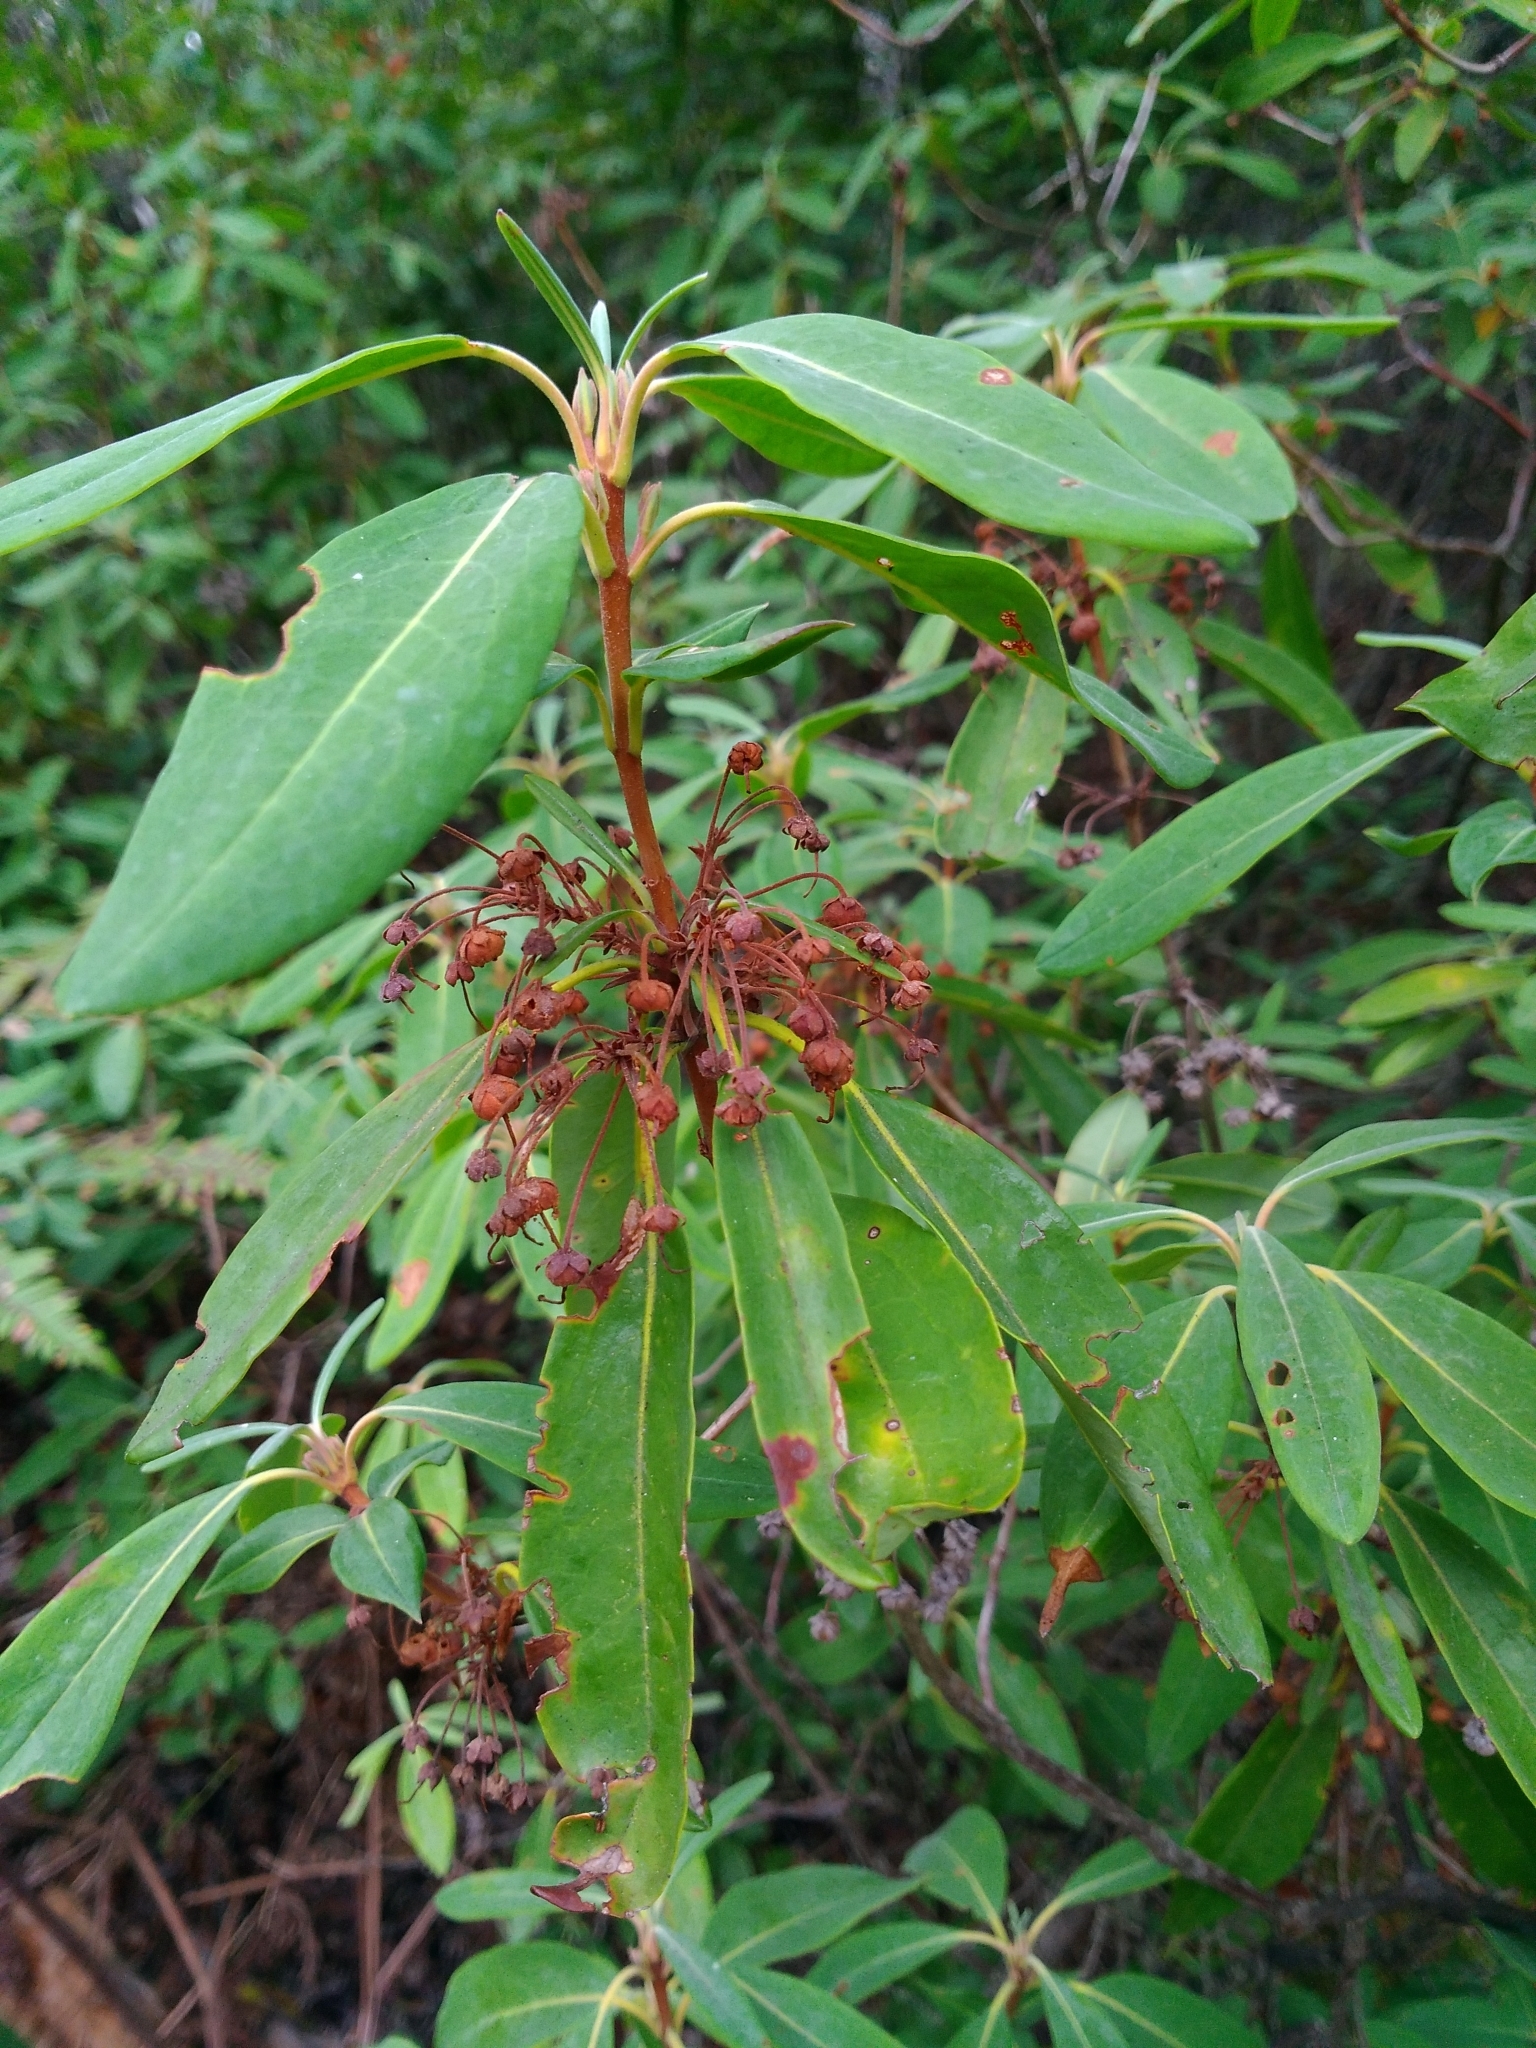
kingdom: Plantae
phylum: Tracheophyta
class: Magnoliopsida
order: Ericales
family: Ericaceae
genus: Kalmia
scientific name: Kalmia angustifolia
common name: Sheep-laurel
